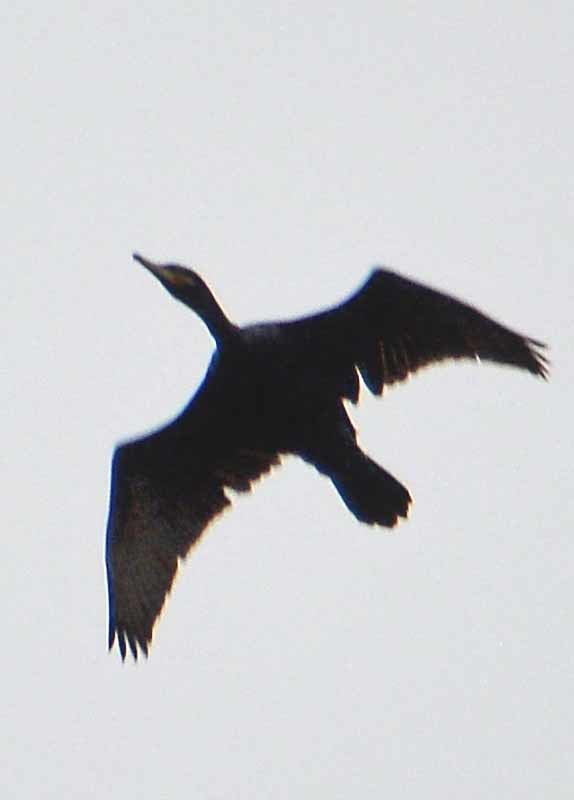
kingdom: Animalia
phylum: Chordata
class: Aves
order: Suliformes
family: Phalacrocoracidae
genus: Phalacrocorax
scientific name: Phalacrocorax brasilianus
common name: Neotropic cormorant
